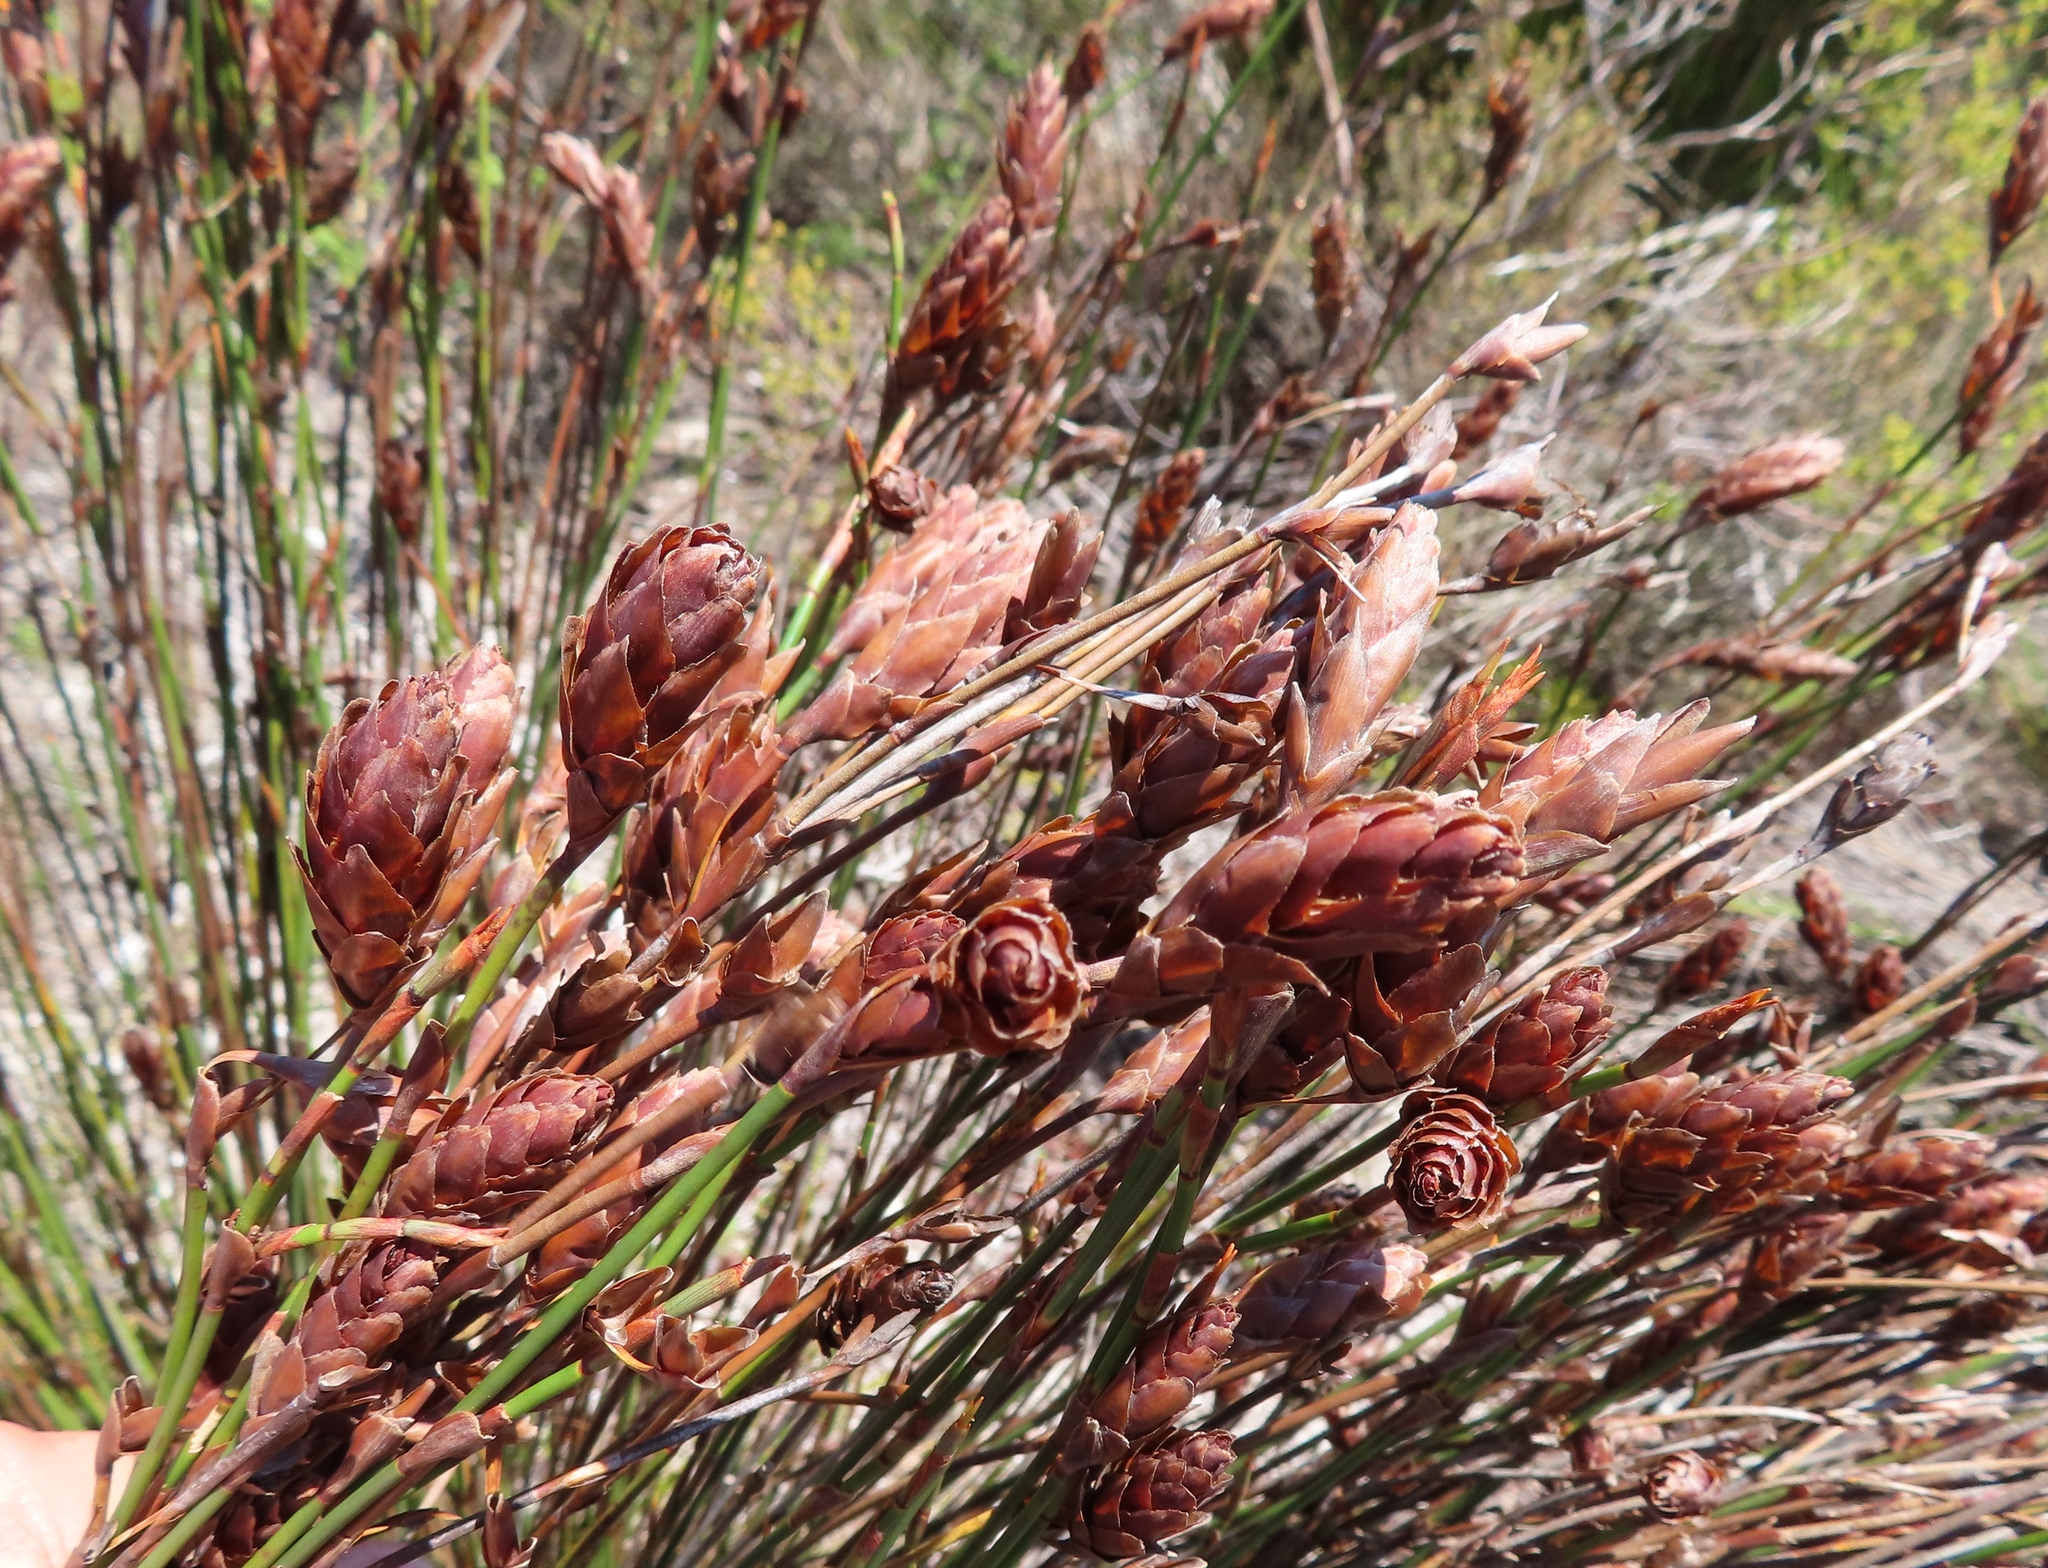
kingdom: Plantae
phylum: Tracheophyta
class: Liliopsida
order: Poales
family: Restionaceae
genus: Restio
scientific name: Restio bifarius
